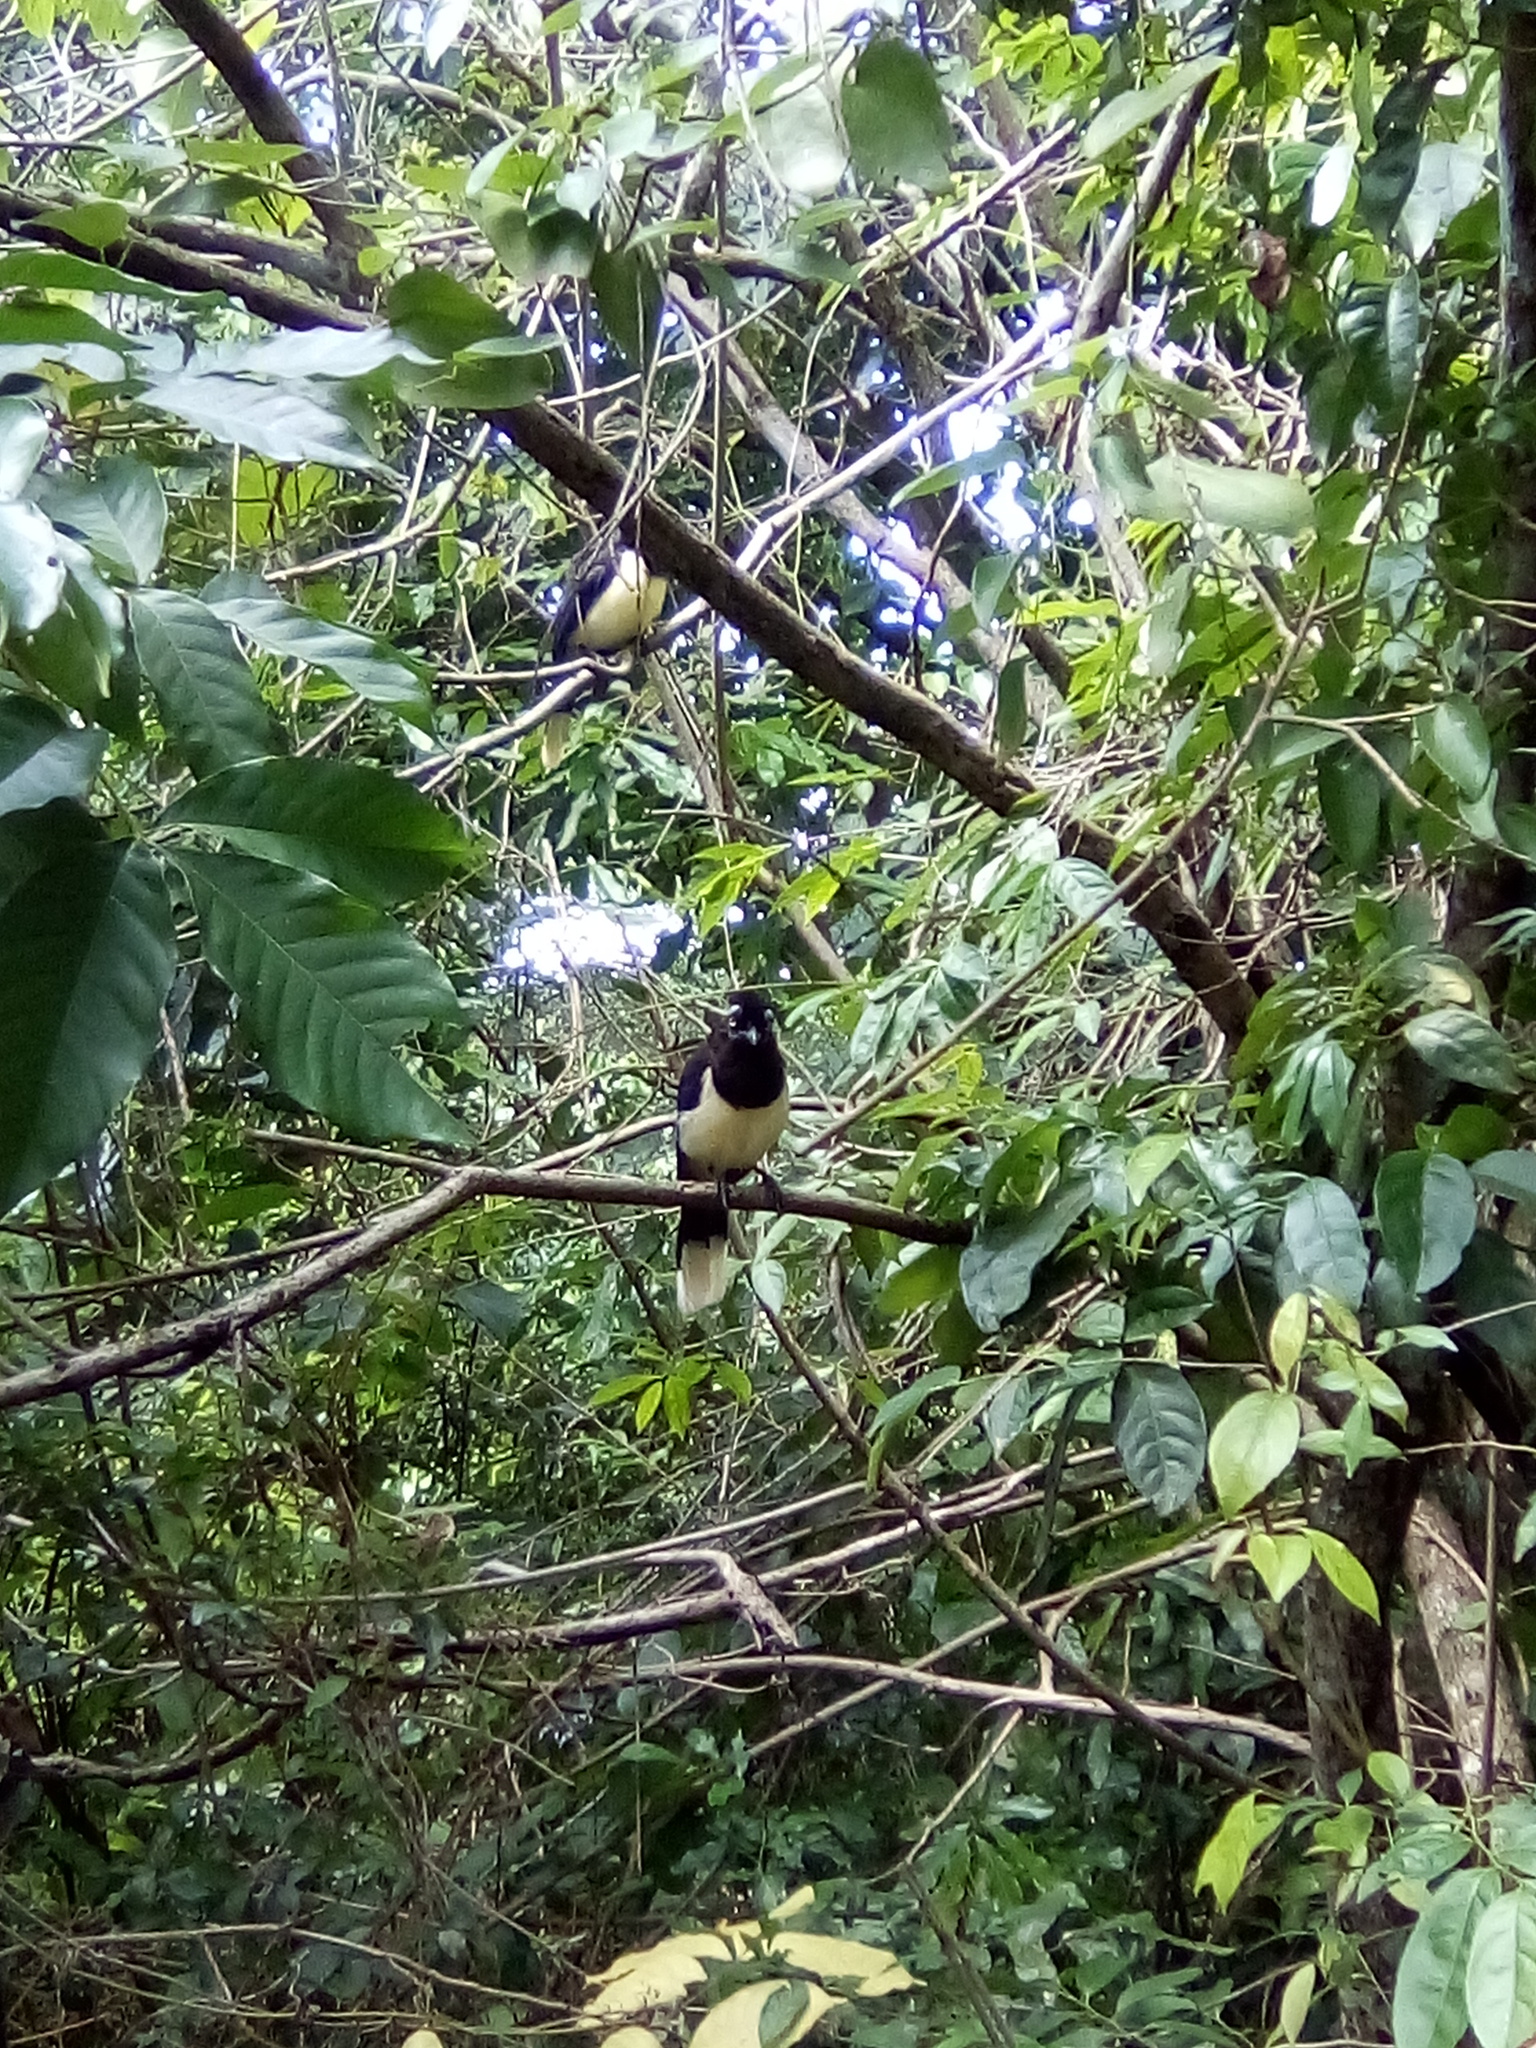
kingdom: Animalia
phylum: Chordata
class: Aves
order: Passeriformes
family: Corvidae
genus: Cyanocorax
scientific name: Cyanocorax chrysops
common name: Plush-crested jay
